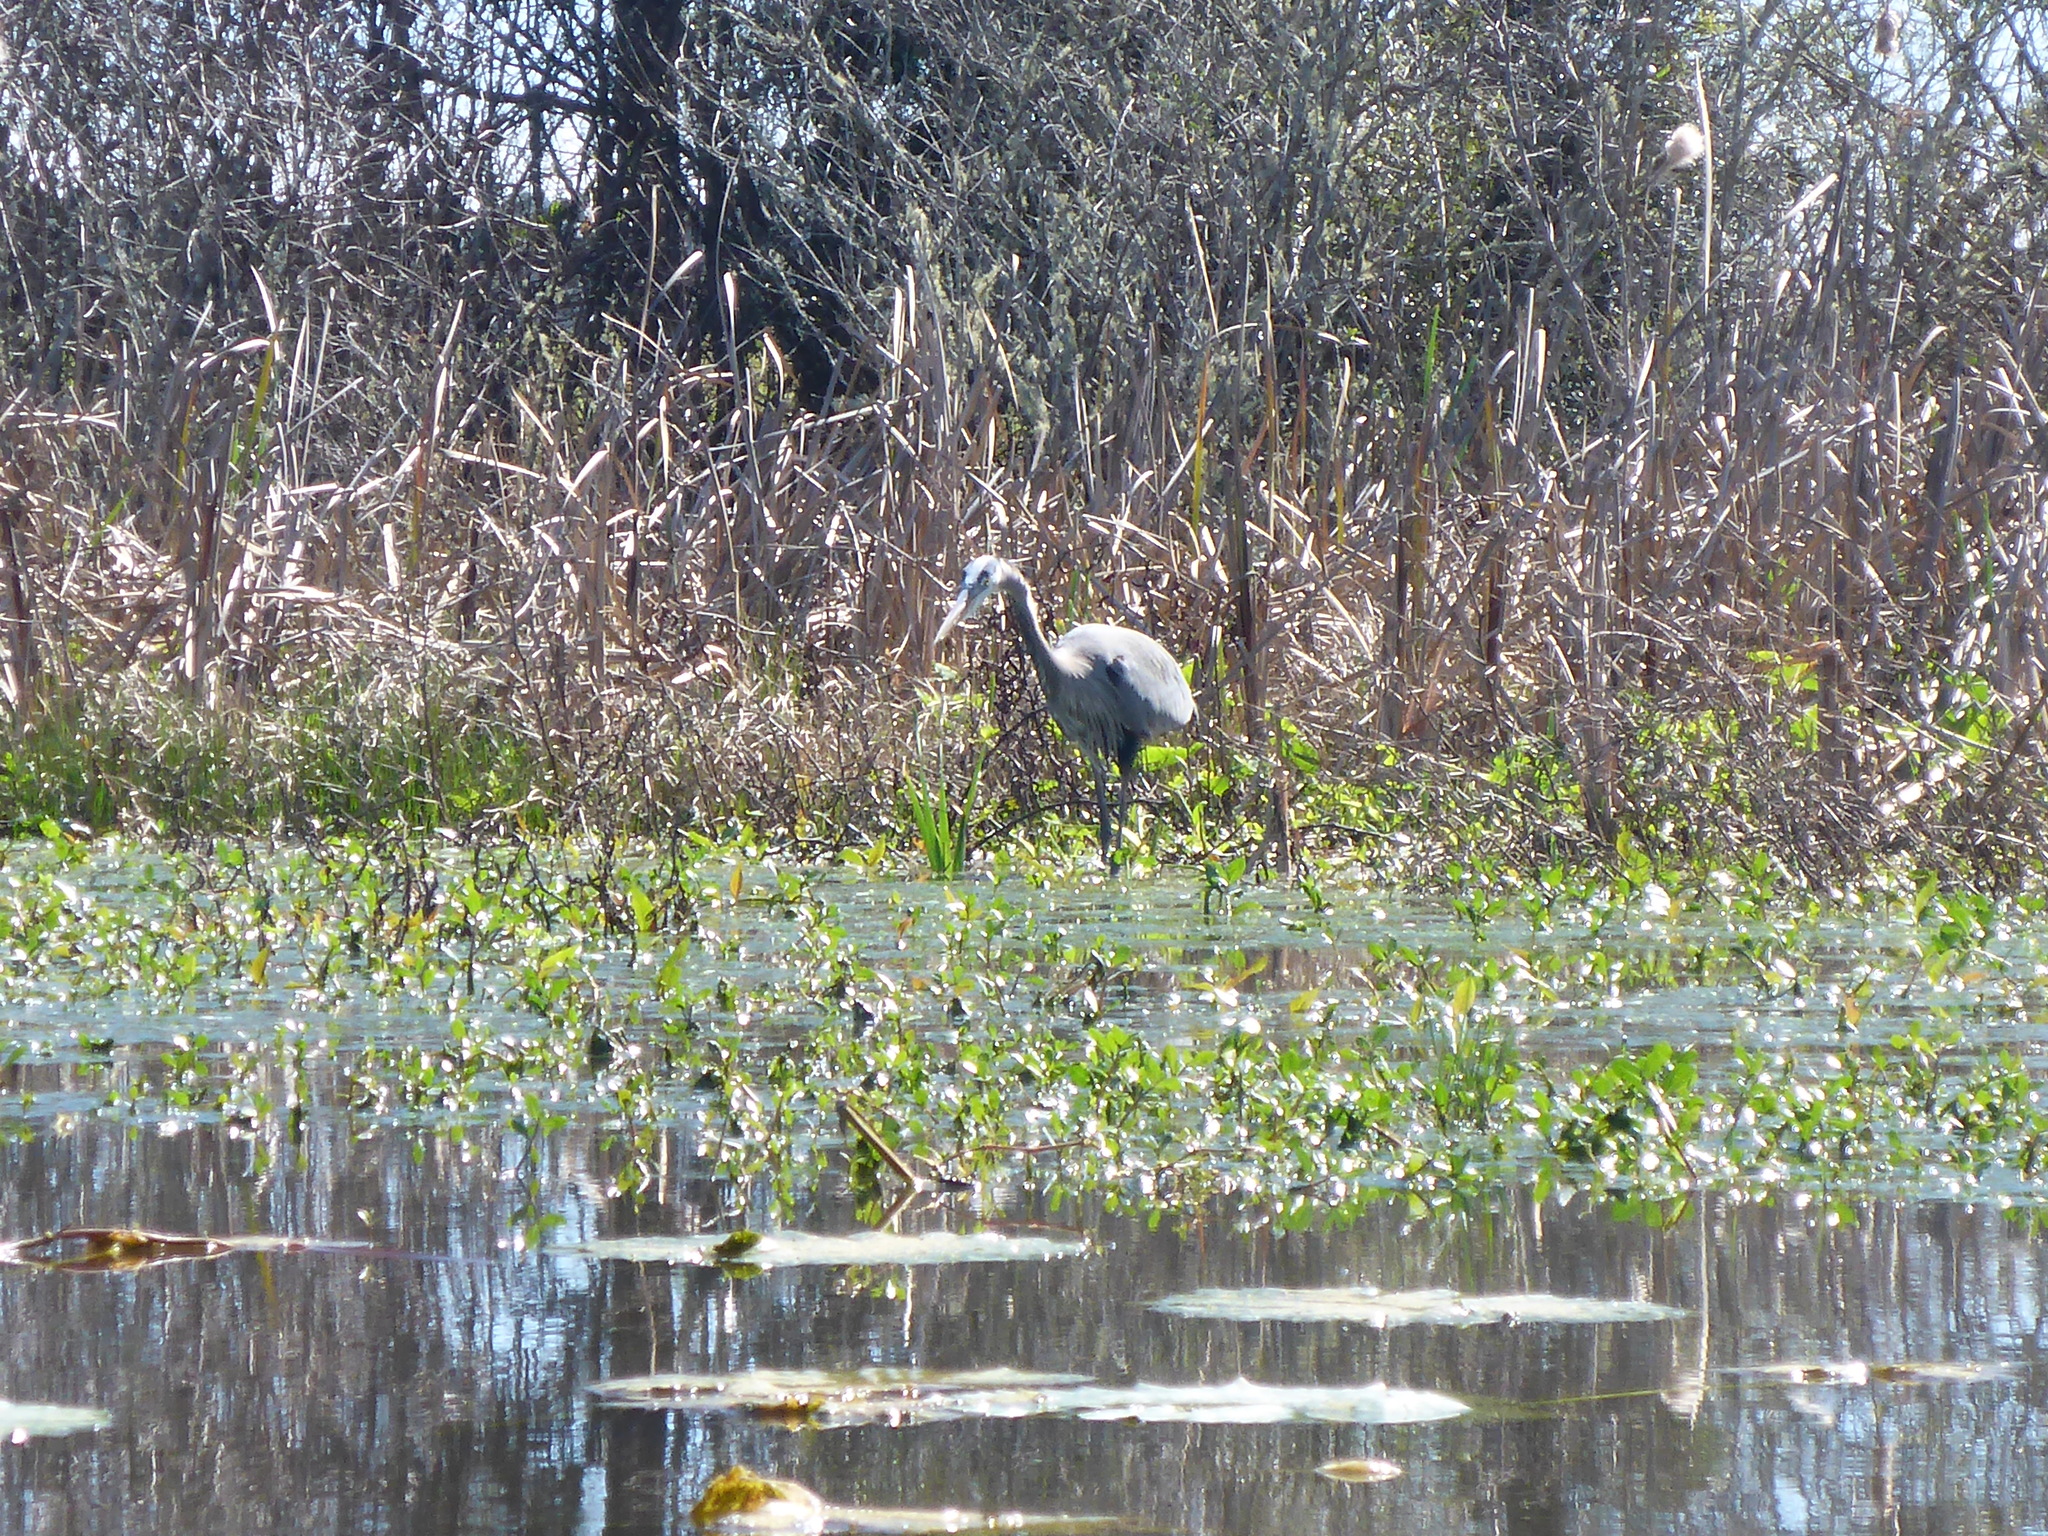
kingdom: Animalia
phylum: Chordata
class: Aves
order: Pelecaniformes
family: Ardeidae
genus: Ardea
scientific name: Ardea herodias
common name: Great blue heron
